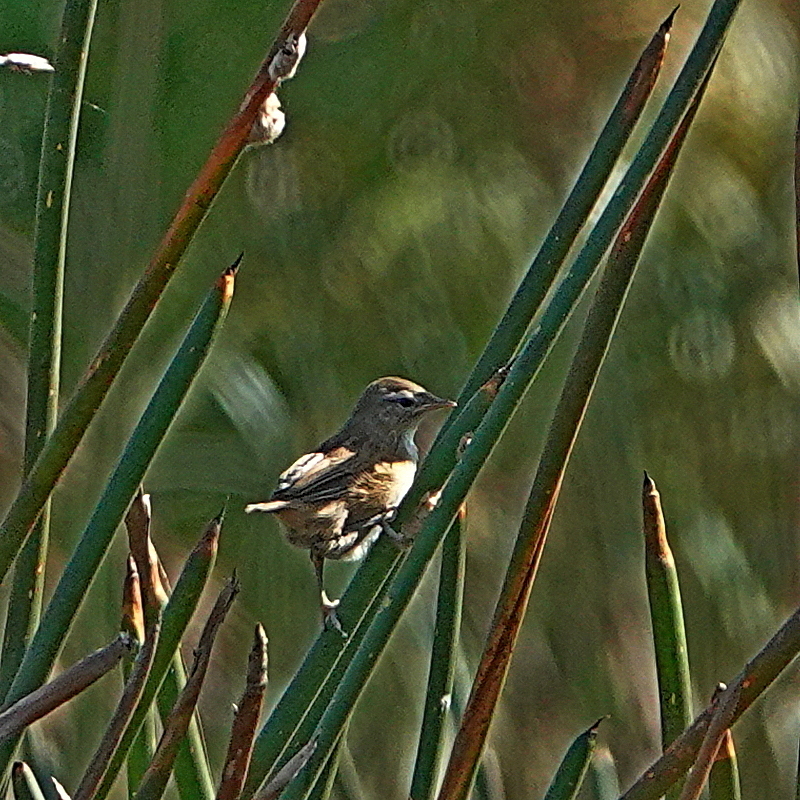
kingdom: Animalia
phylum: Chordata
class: Aves
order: Passeriformes
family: Locustellidae
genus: Megalurus
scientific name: Megalurus gramineus
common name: Little grassbird
